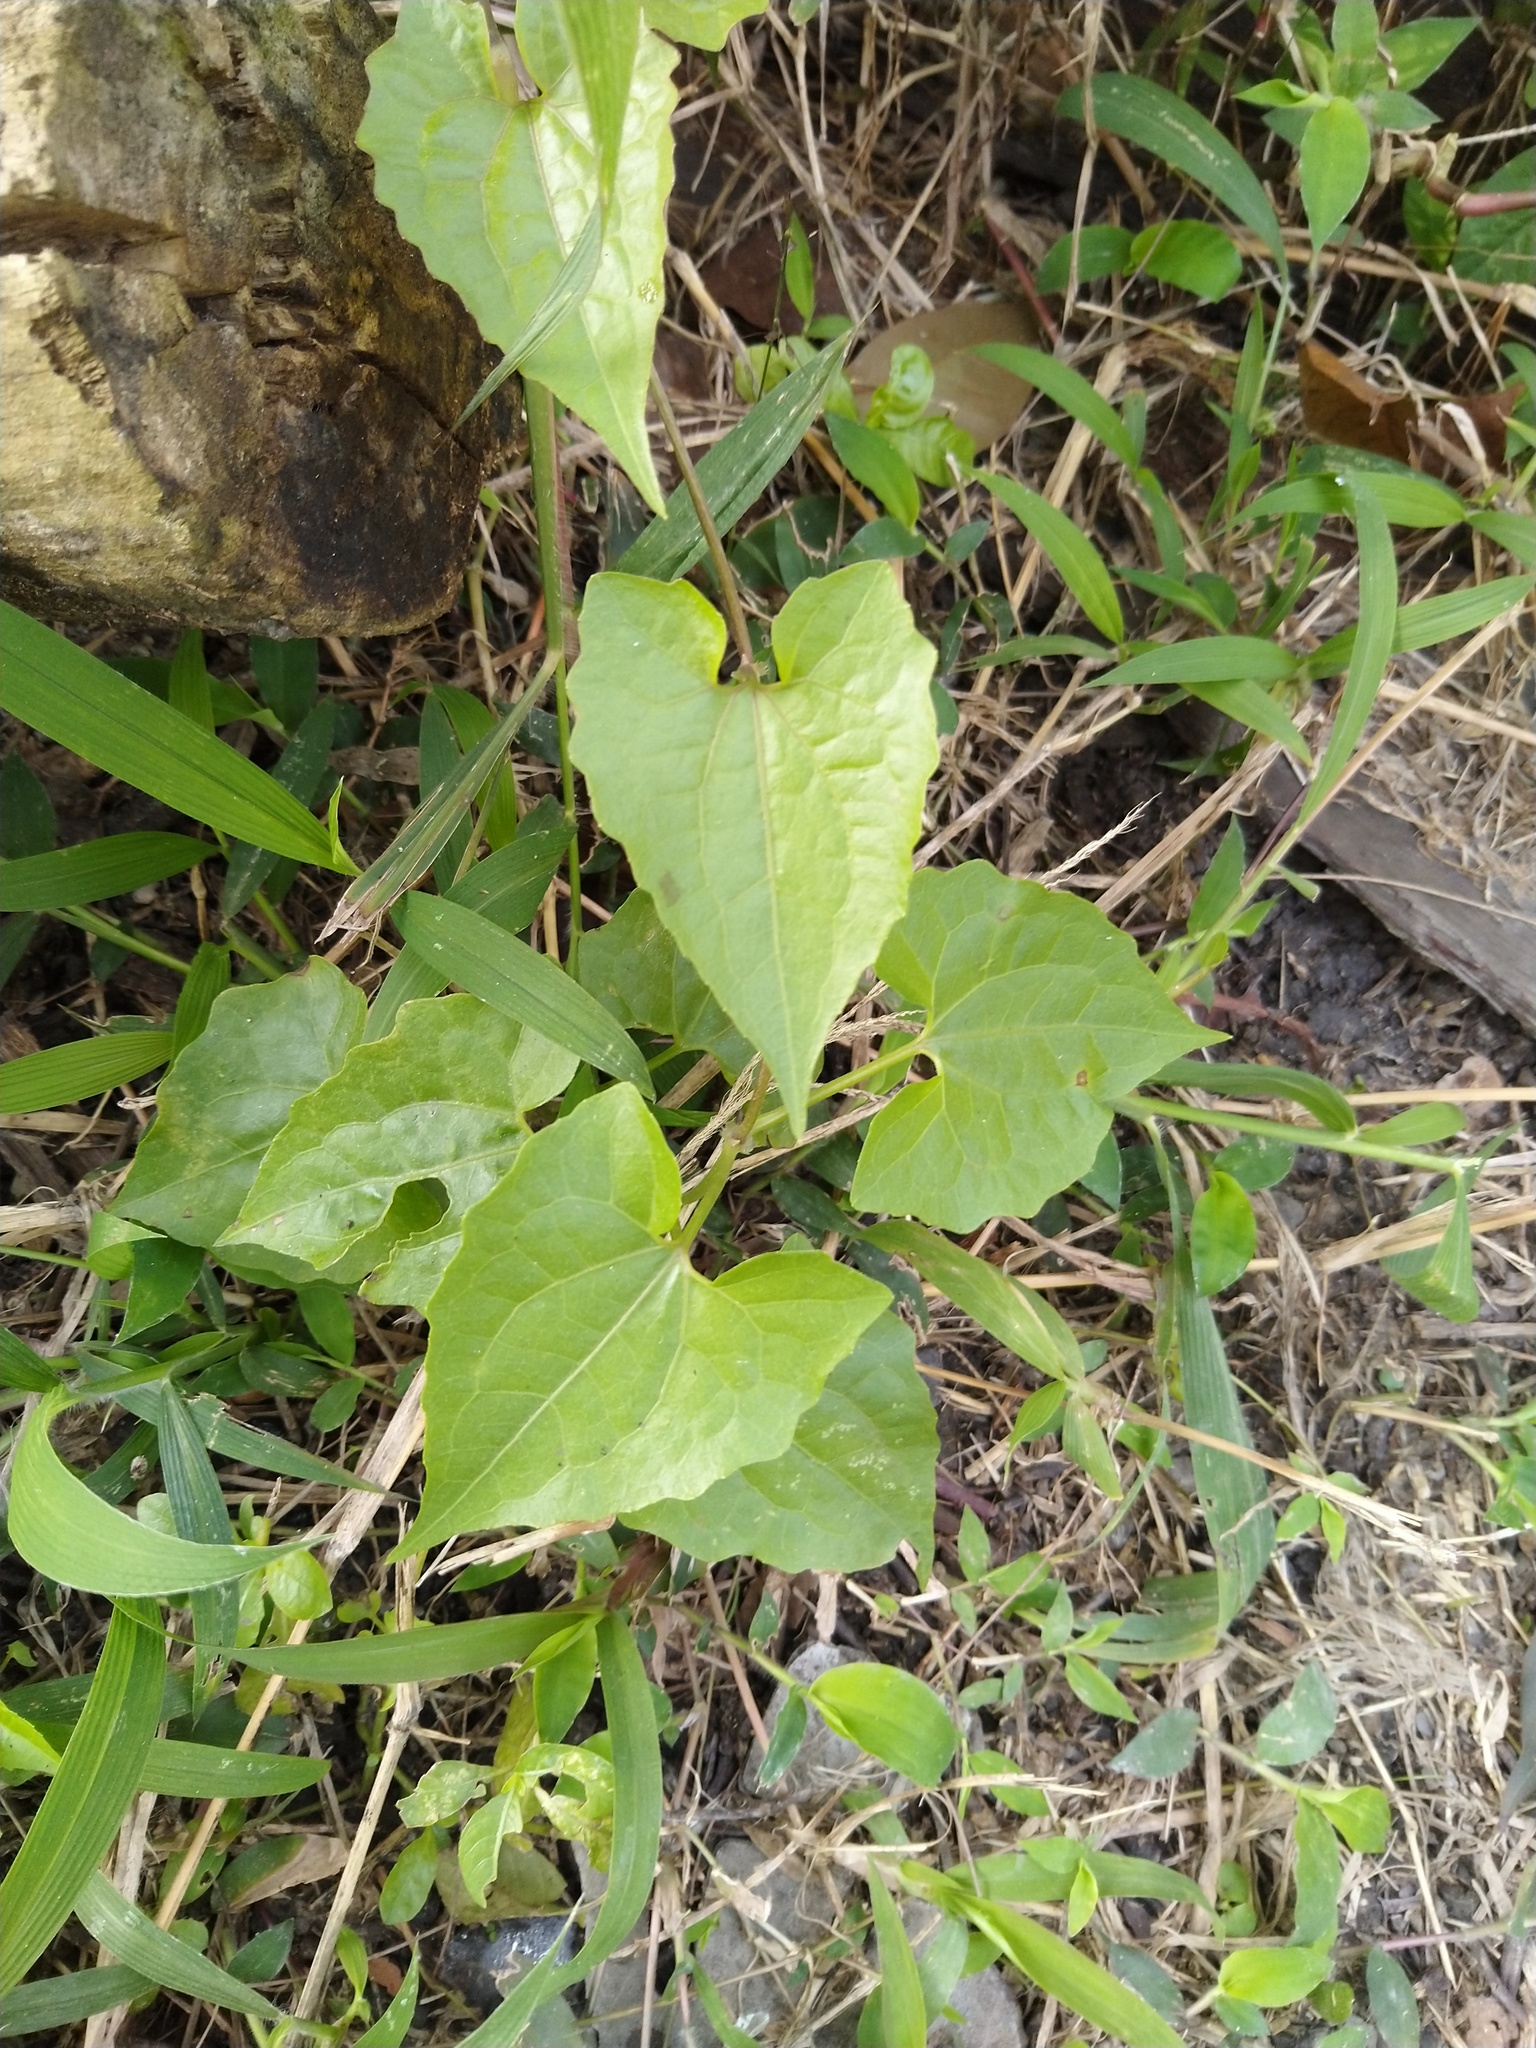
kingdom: Plantae
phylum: Tracheophyta
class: Magnoliopsida
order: Asterales
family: Asteraceae
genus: Mikania
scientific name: Mikania micrantha
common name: Mile-a-minute
